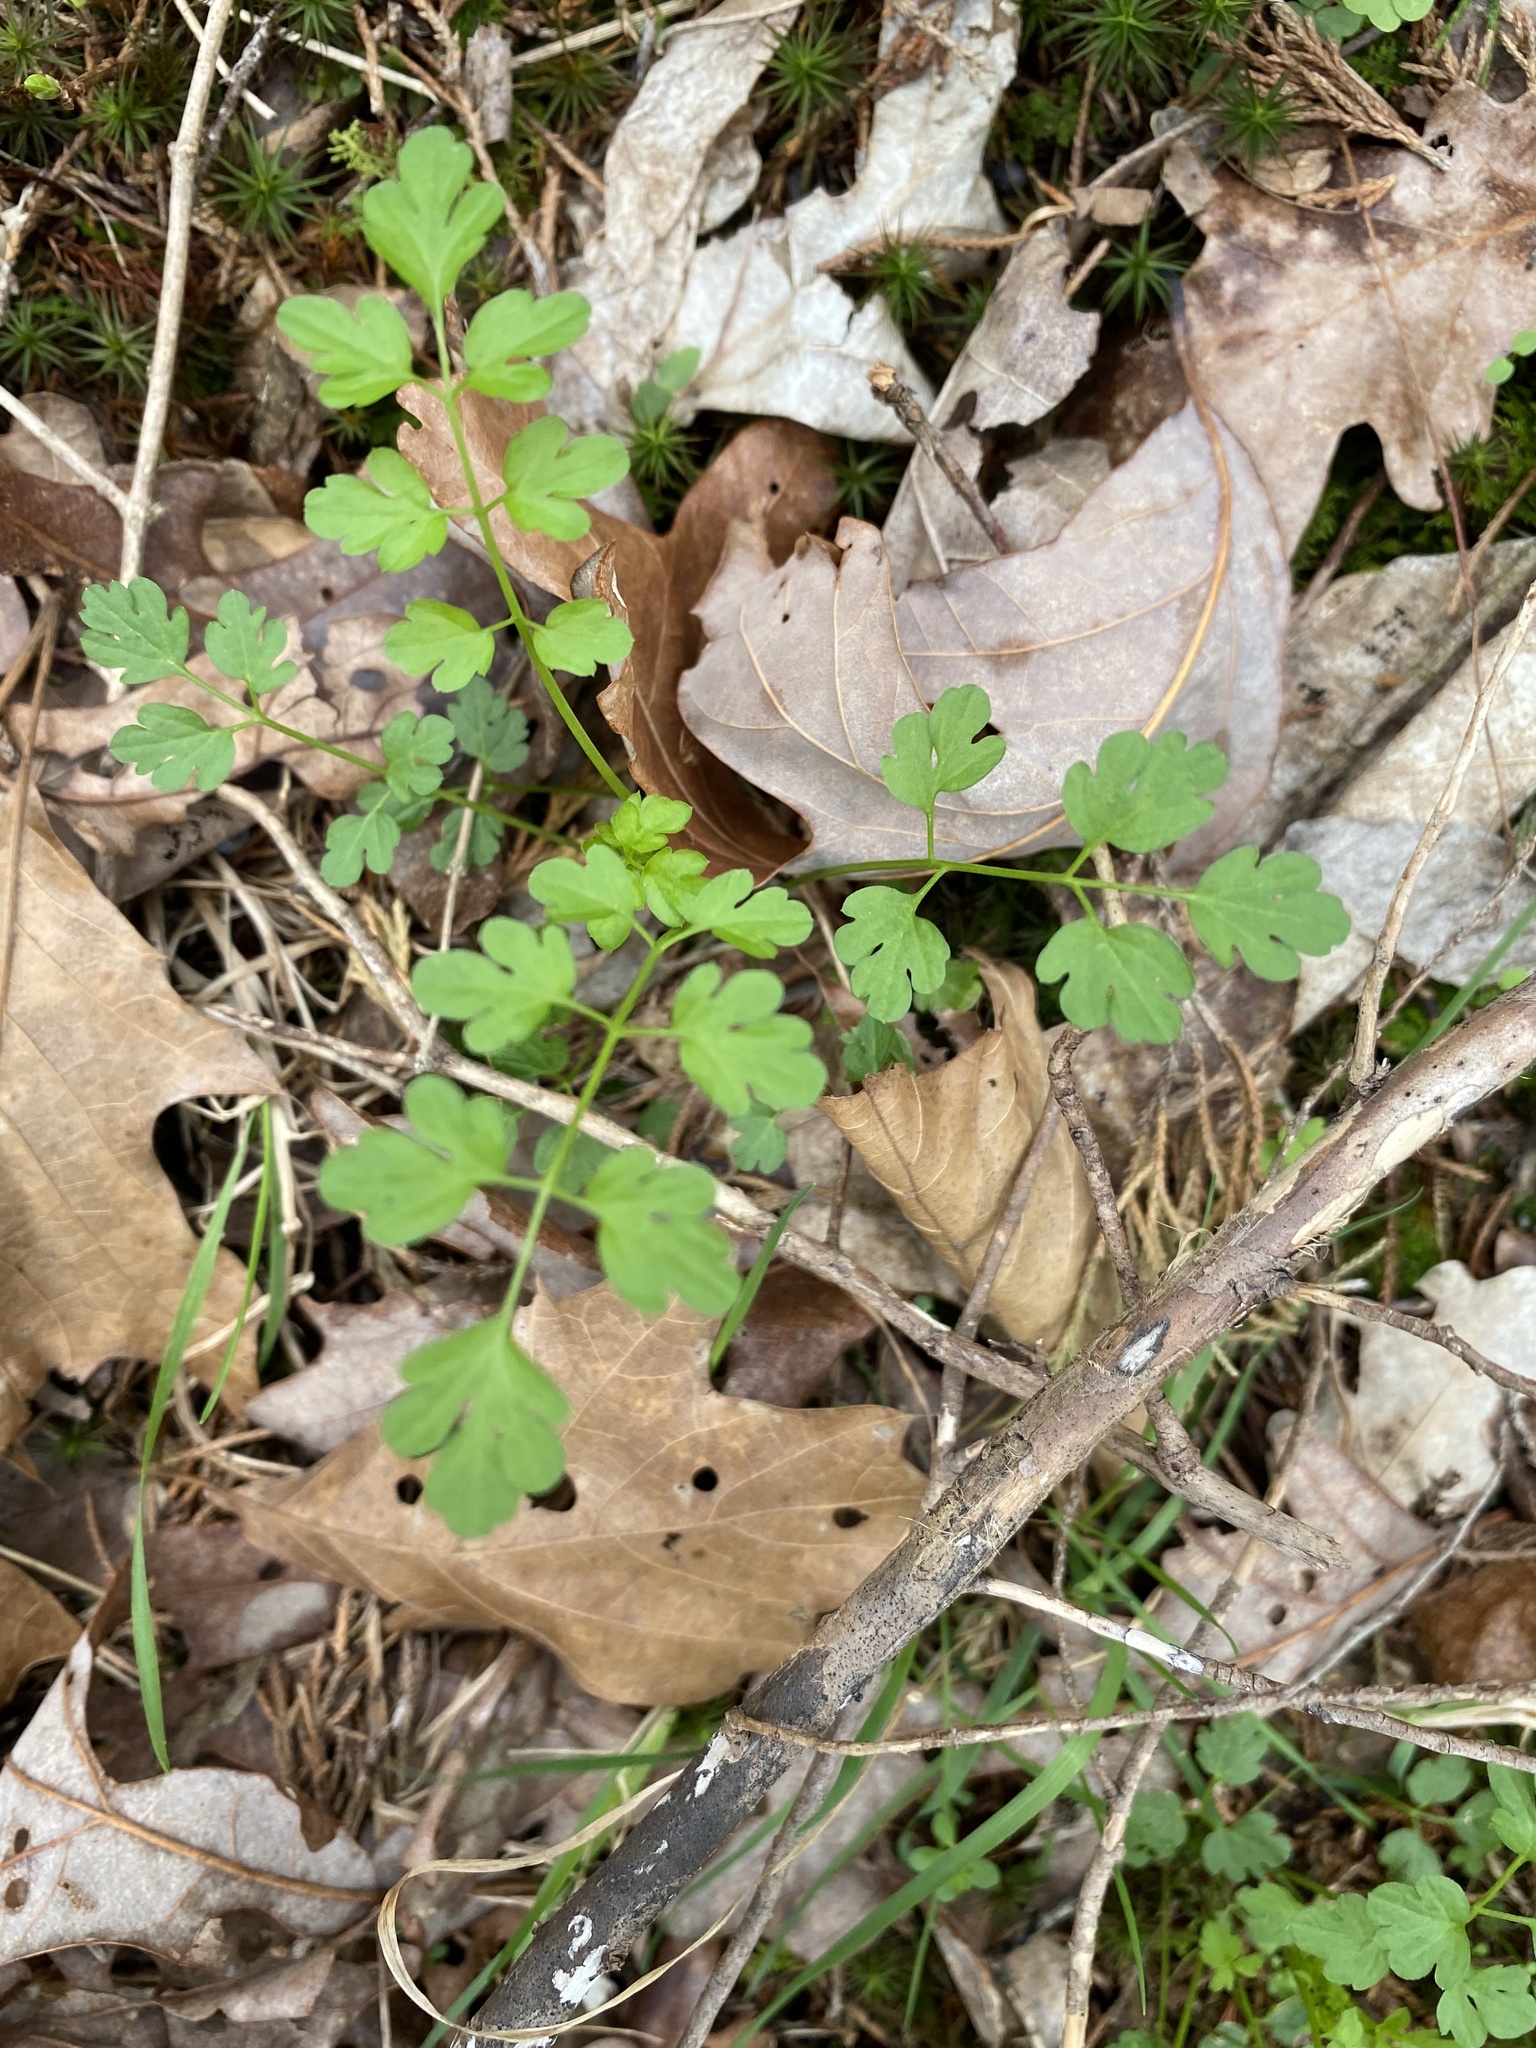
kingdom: Plantae
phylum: Tracheophyta
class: Magnoliopsida
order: Brassicales
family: Brassicaceae
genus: Cardamine
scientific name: Cardamine impatiens
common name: Narrow-leaved bitter-cress
